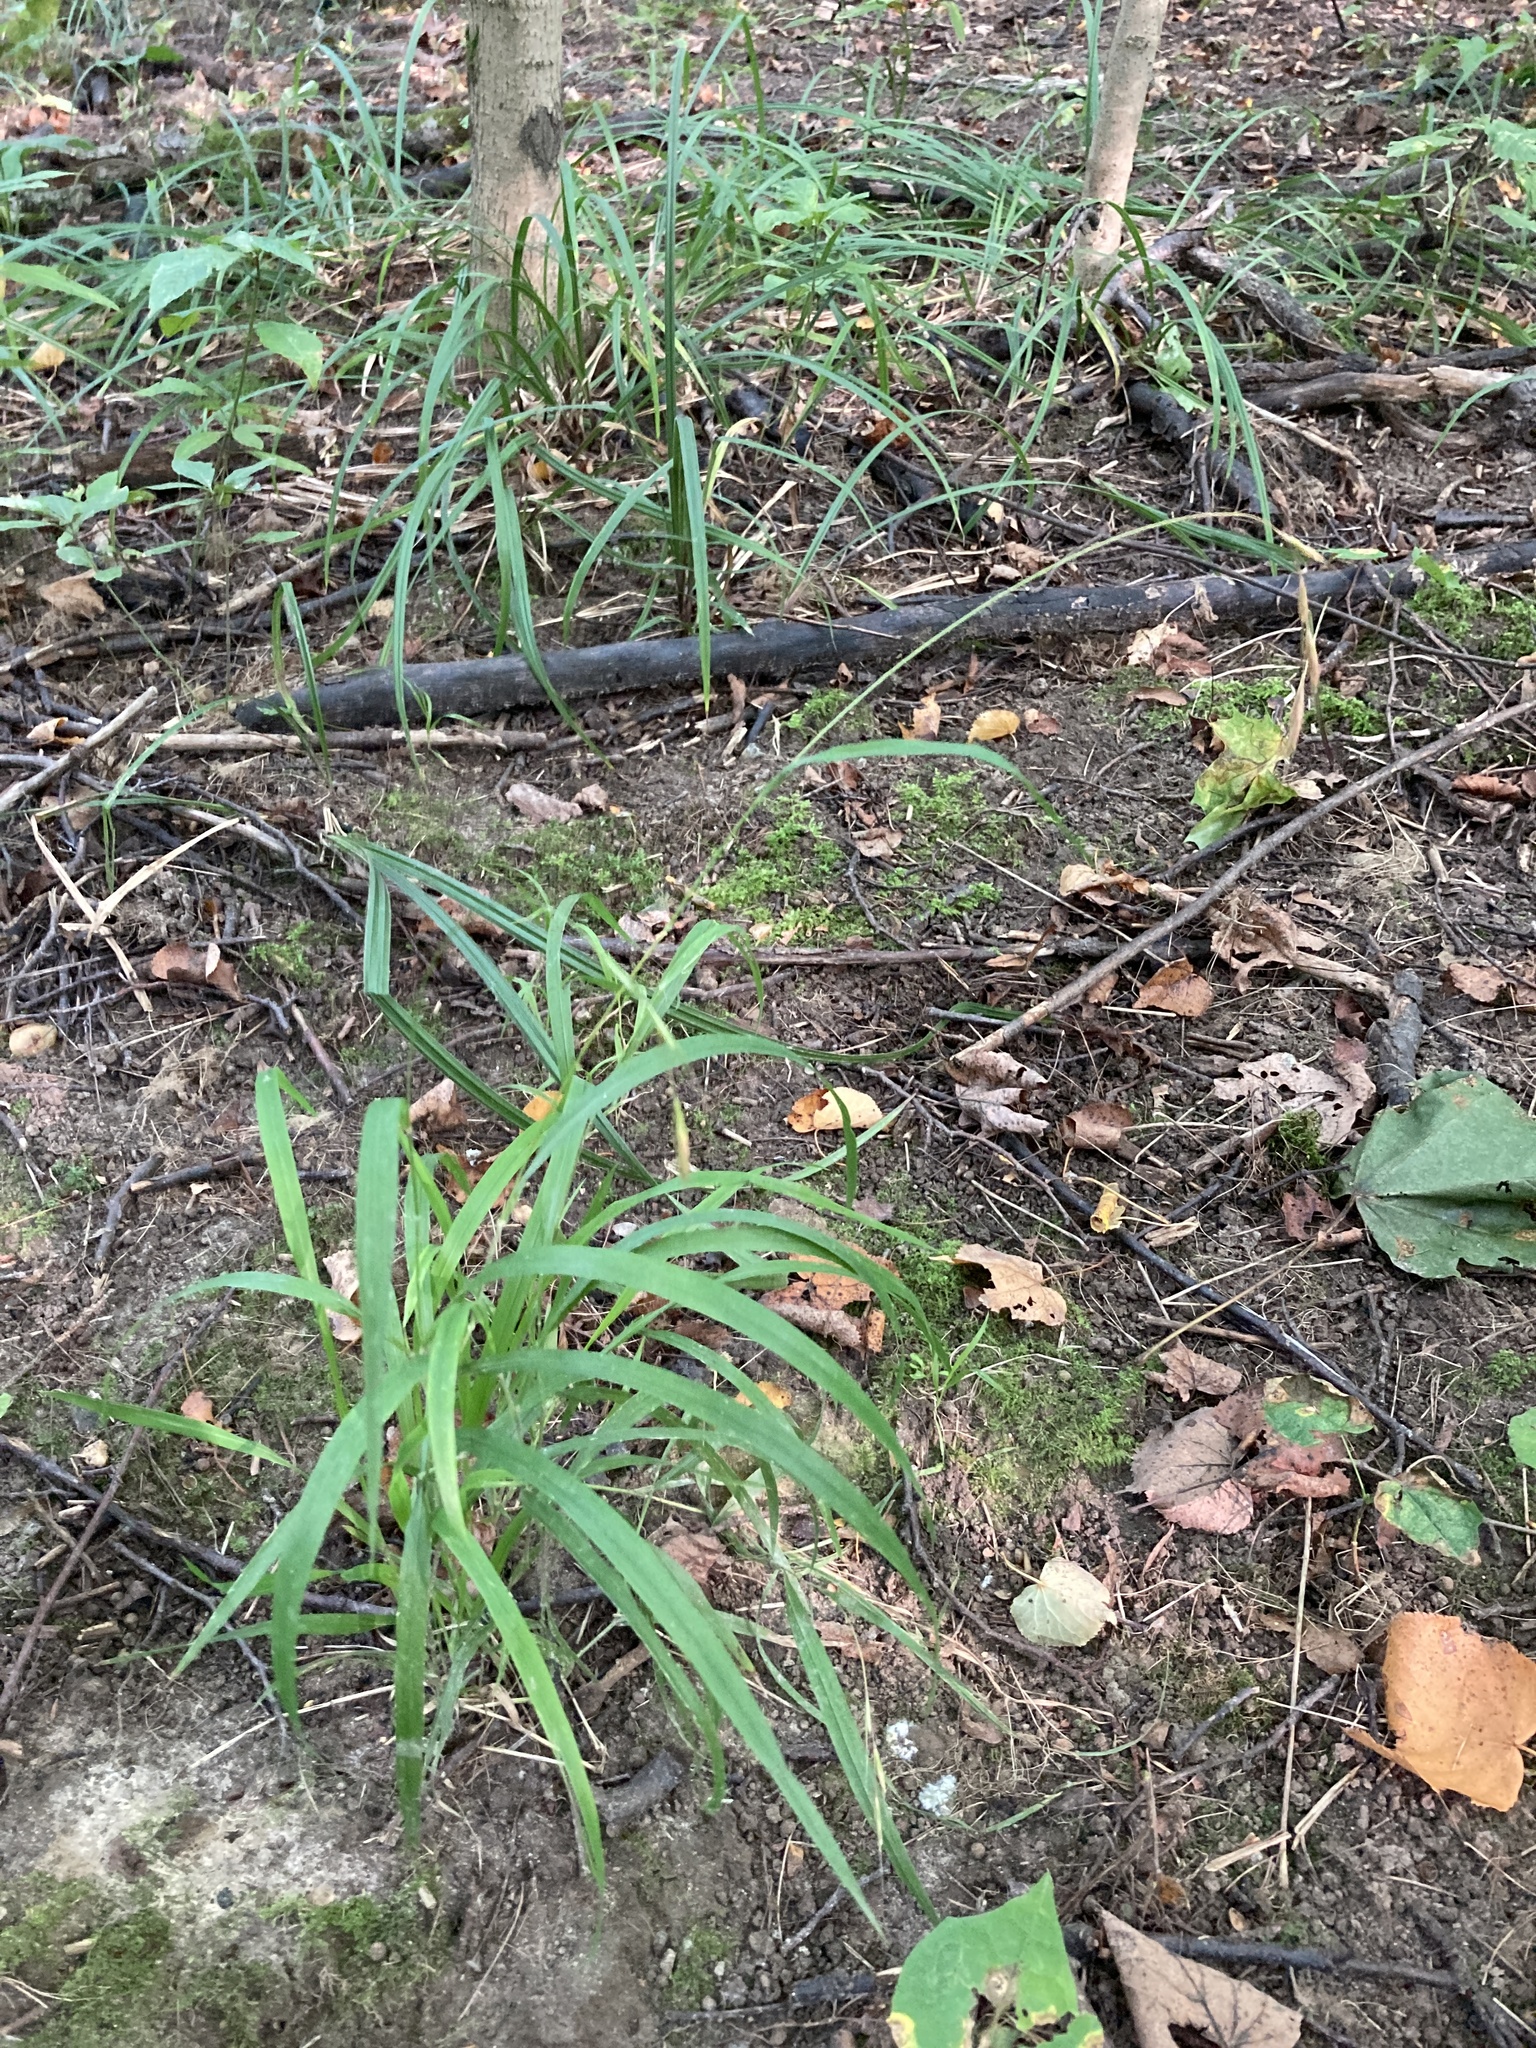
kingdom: Plantae
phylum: Tracheophyta
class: Liliopsida
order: Poales
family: Poaceae
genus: Brachypodium
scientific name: Brachypodium sylvaticum
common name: False-brome
